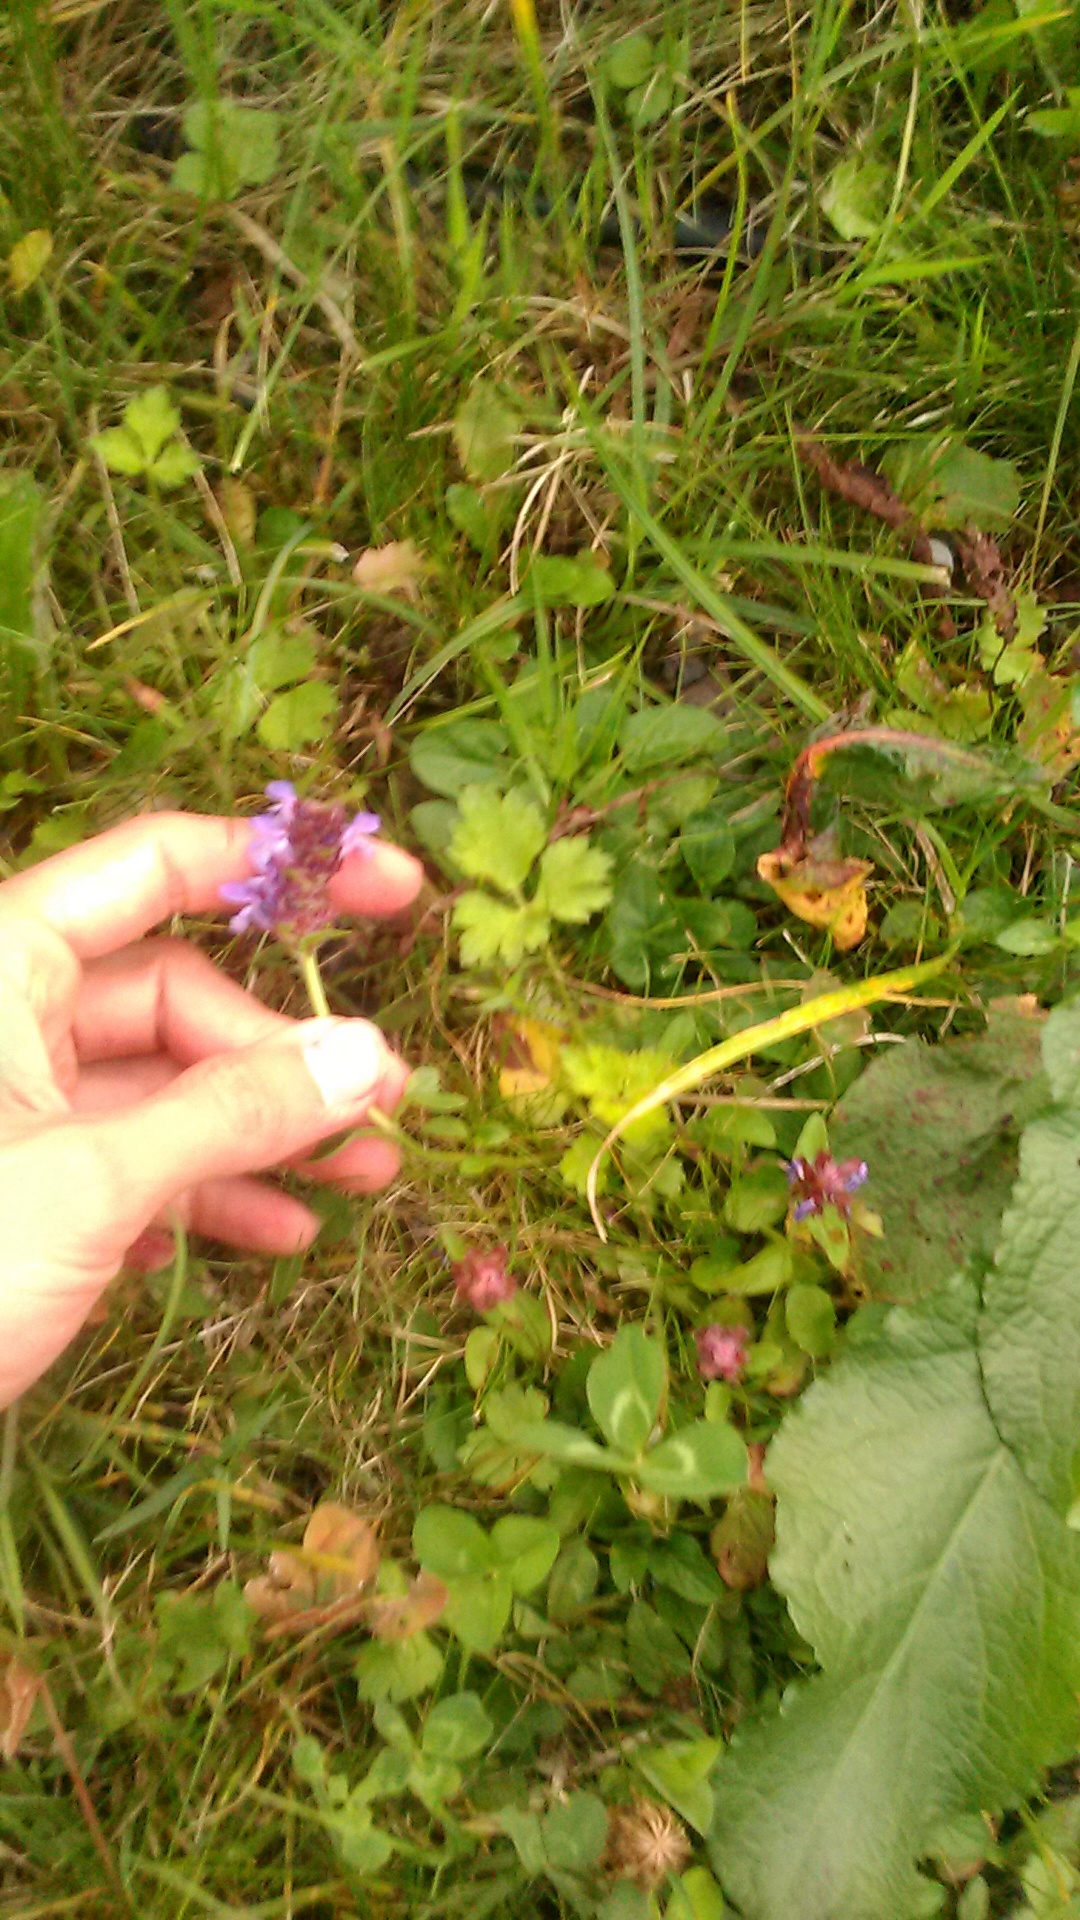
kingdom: Plantae
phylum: Tracheophyta
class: Magnoliopsida
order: Lamiales
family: Lamiaceae
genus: Prunella
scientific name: Prunella vulgaris
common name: Heal-all
